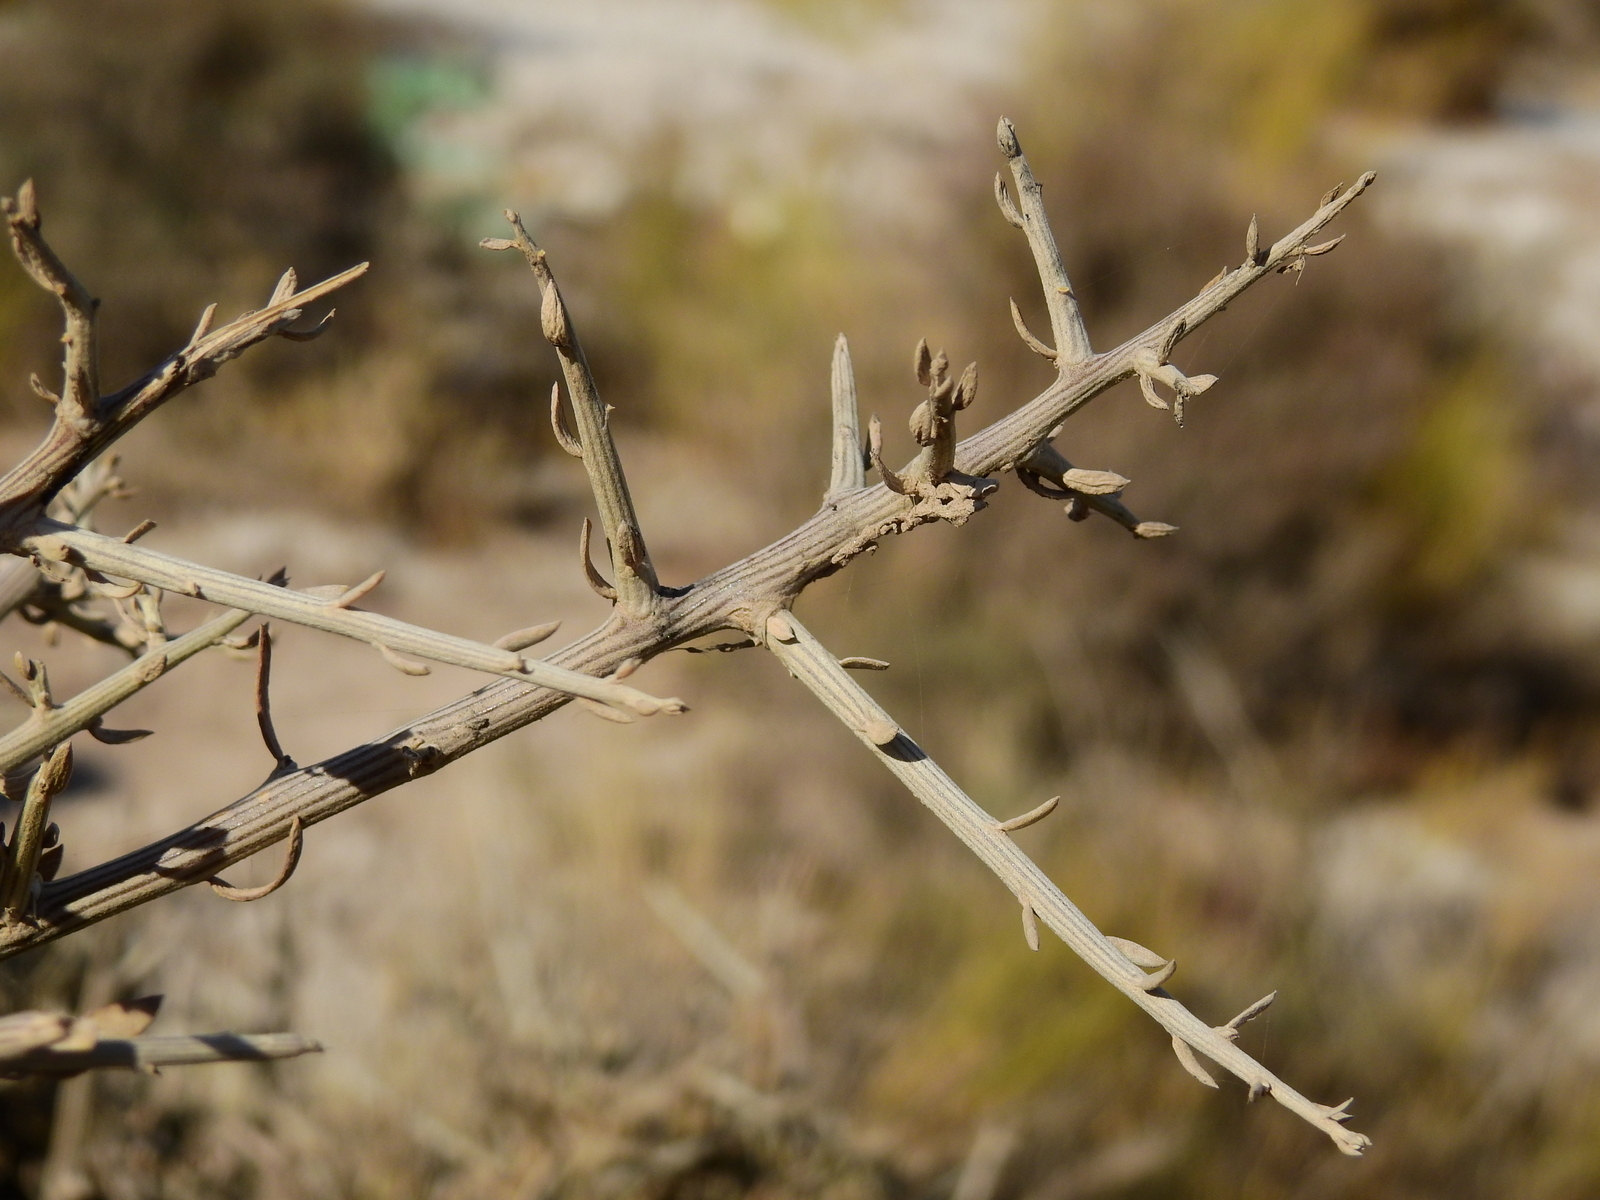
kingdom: Plantae
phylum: Tracheophyta
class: Magnoliopsida
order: Asterales
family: Asteraceae
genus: Cyclolepis
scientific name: Cyclolepis genistoides
